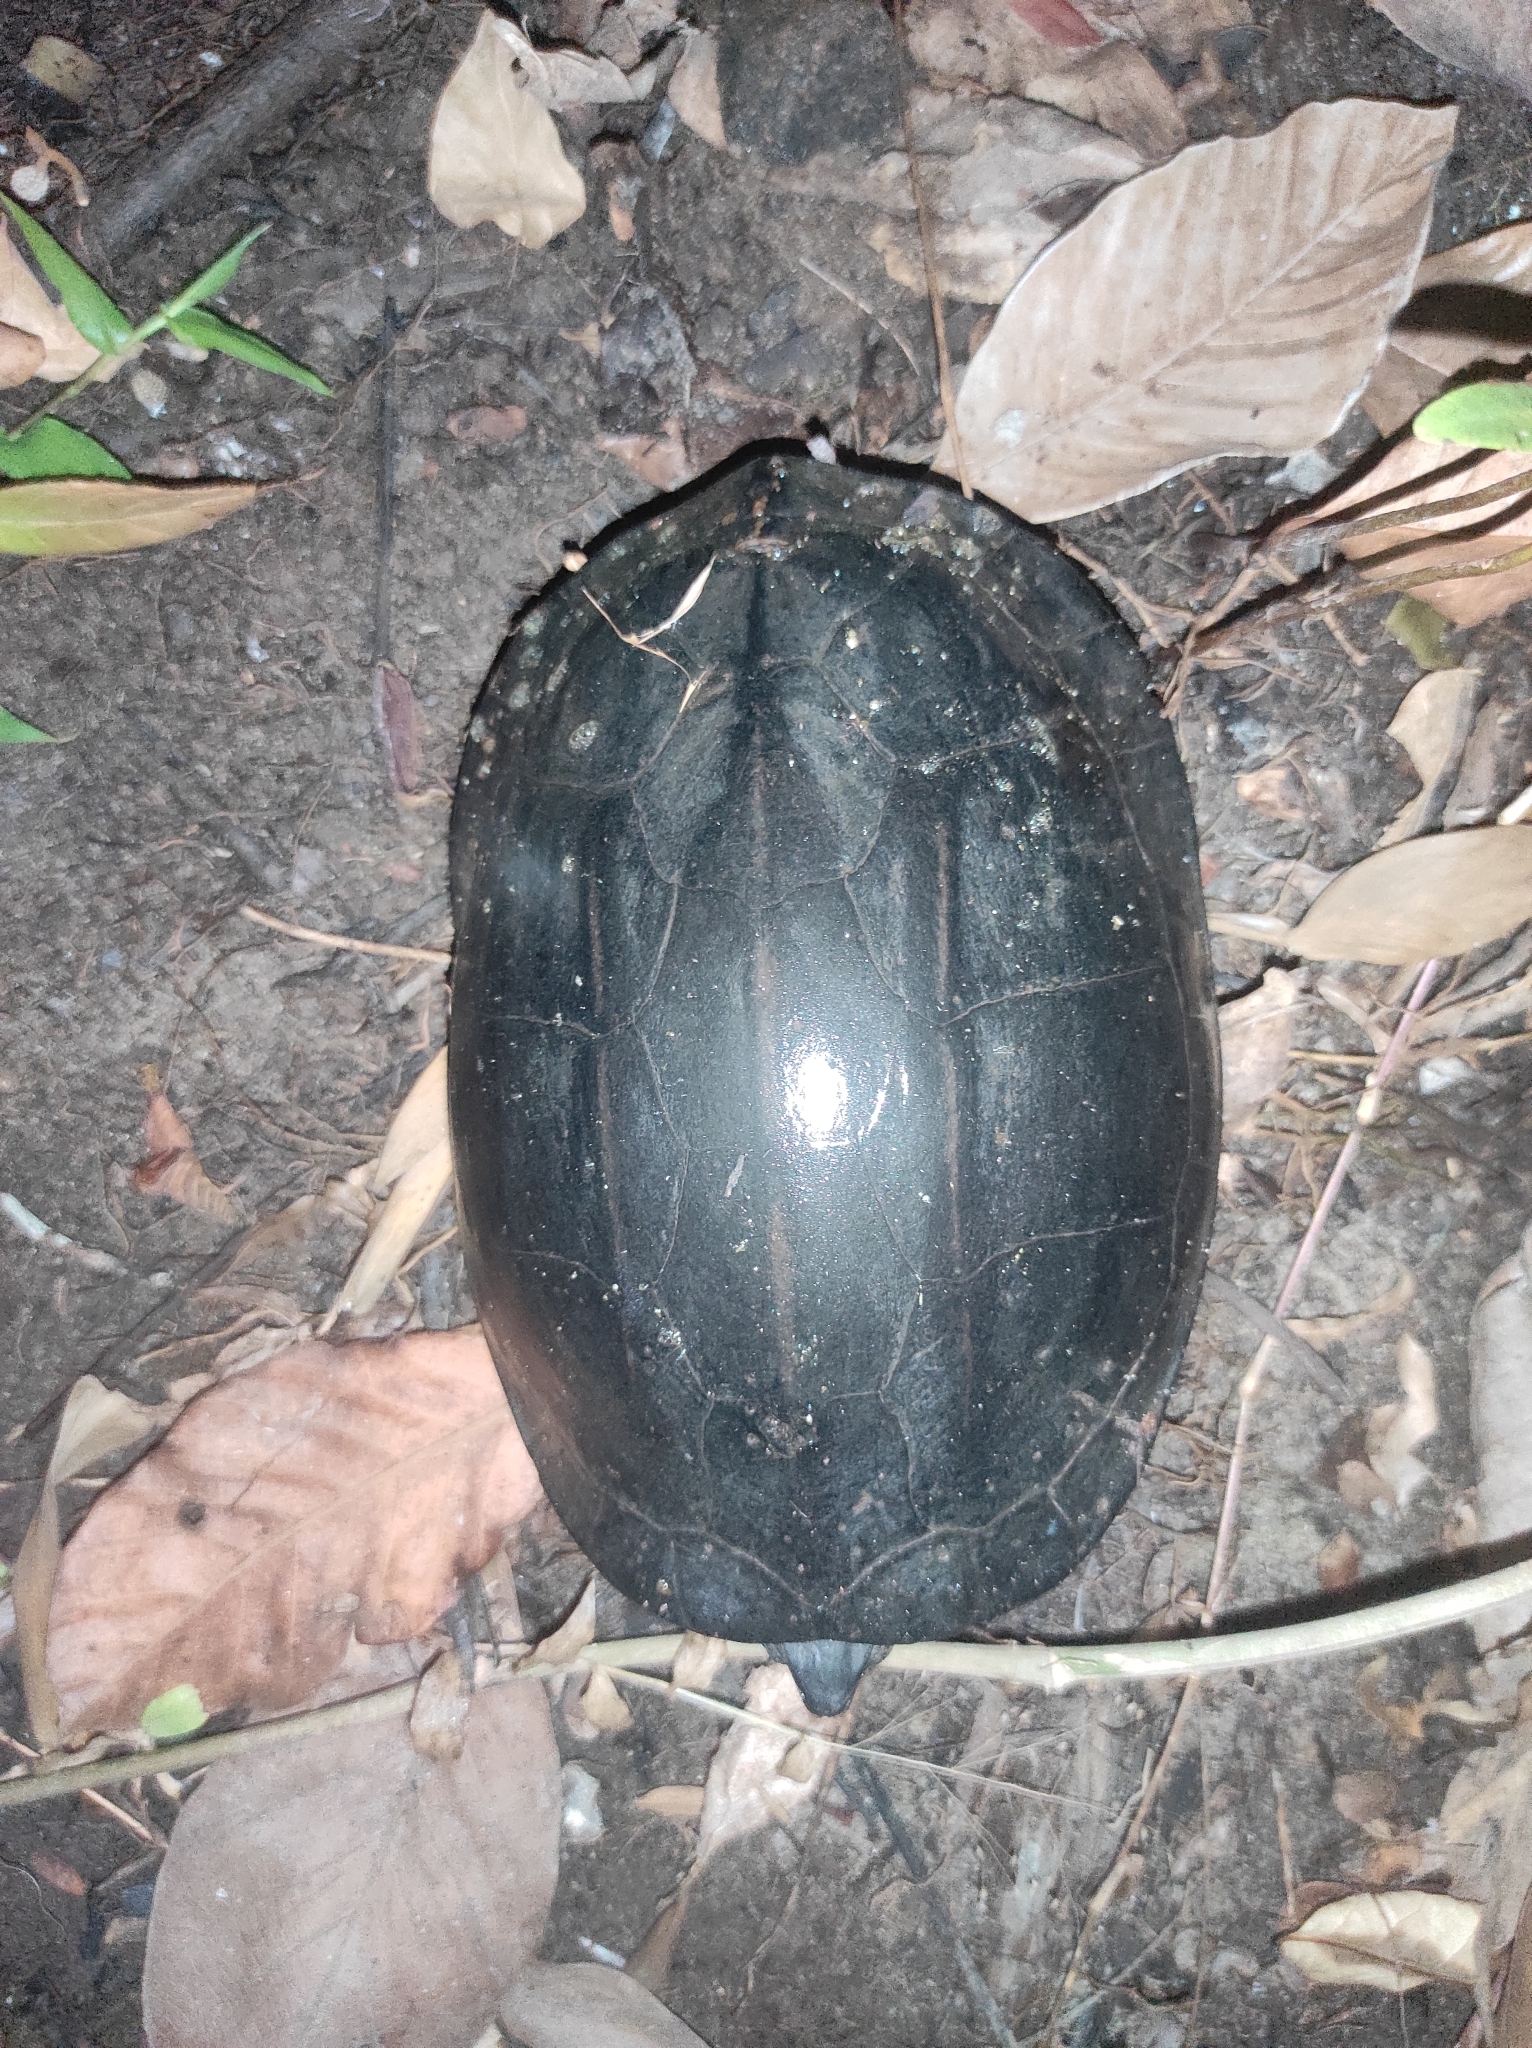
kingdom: Animalia
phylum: Chordata
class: Testudines
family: Geoemydidae
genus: Melanochelys
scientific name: Melanochelys trijuga
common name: Indian black turtle
